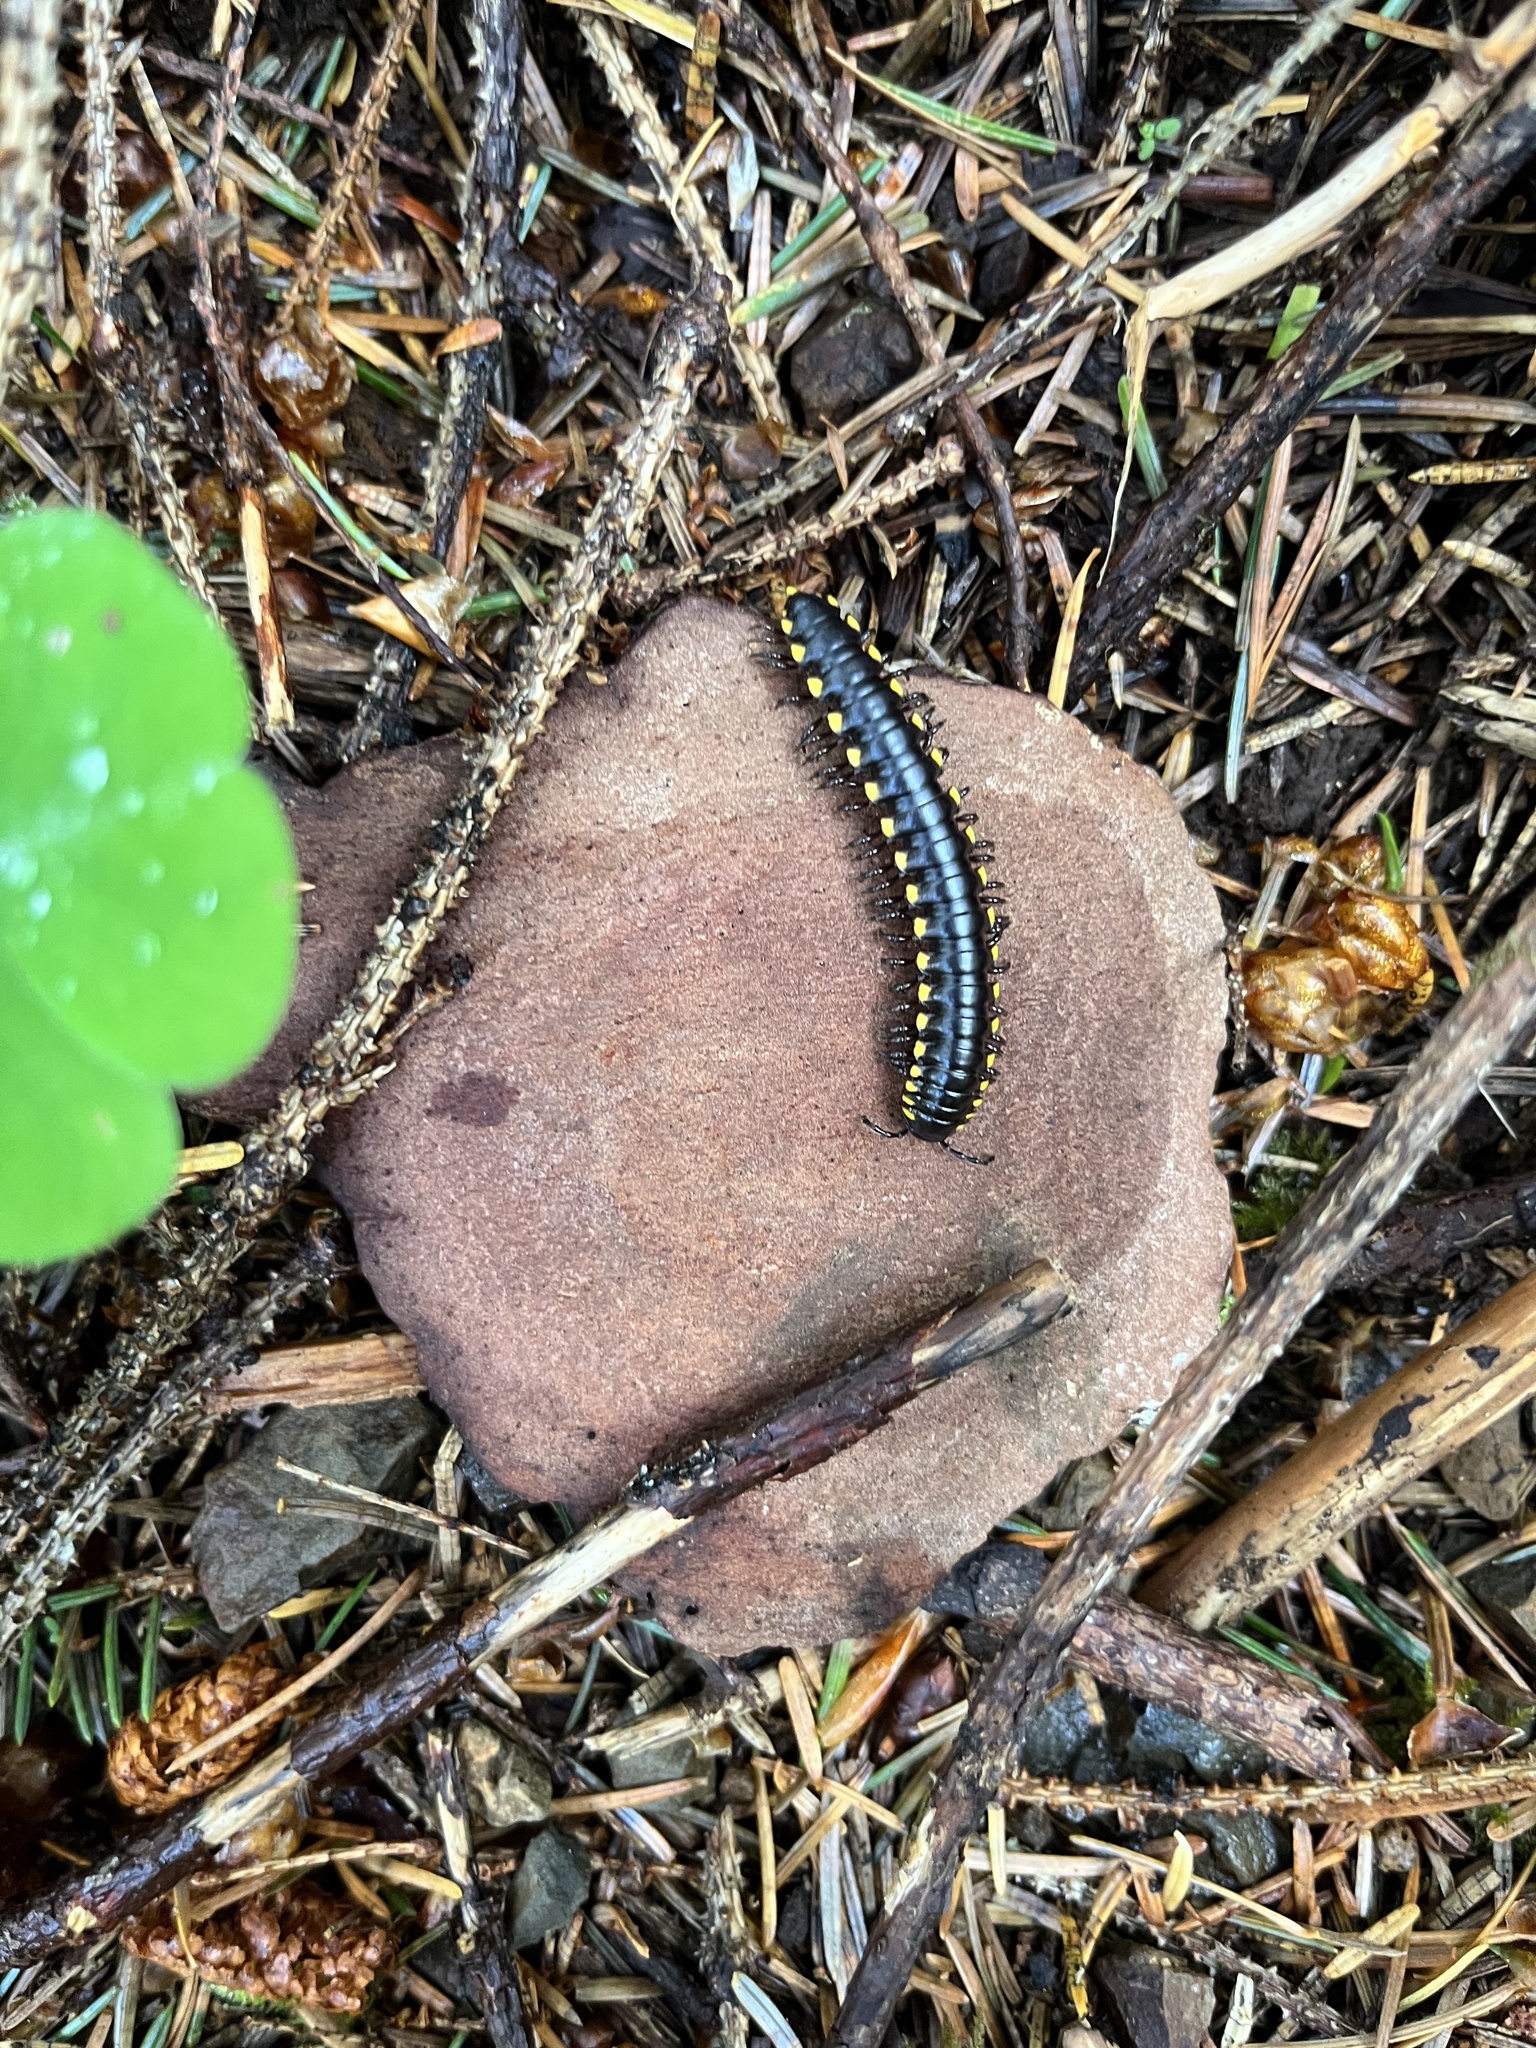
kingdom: Animalia
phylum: Arthropoda
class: Diplopoda
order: Polydesmida
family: Xystodesmidae
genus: Harpaphe
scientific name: Harpaphe haydeniana
